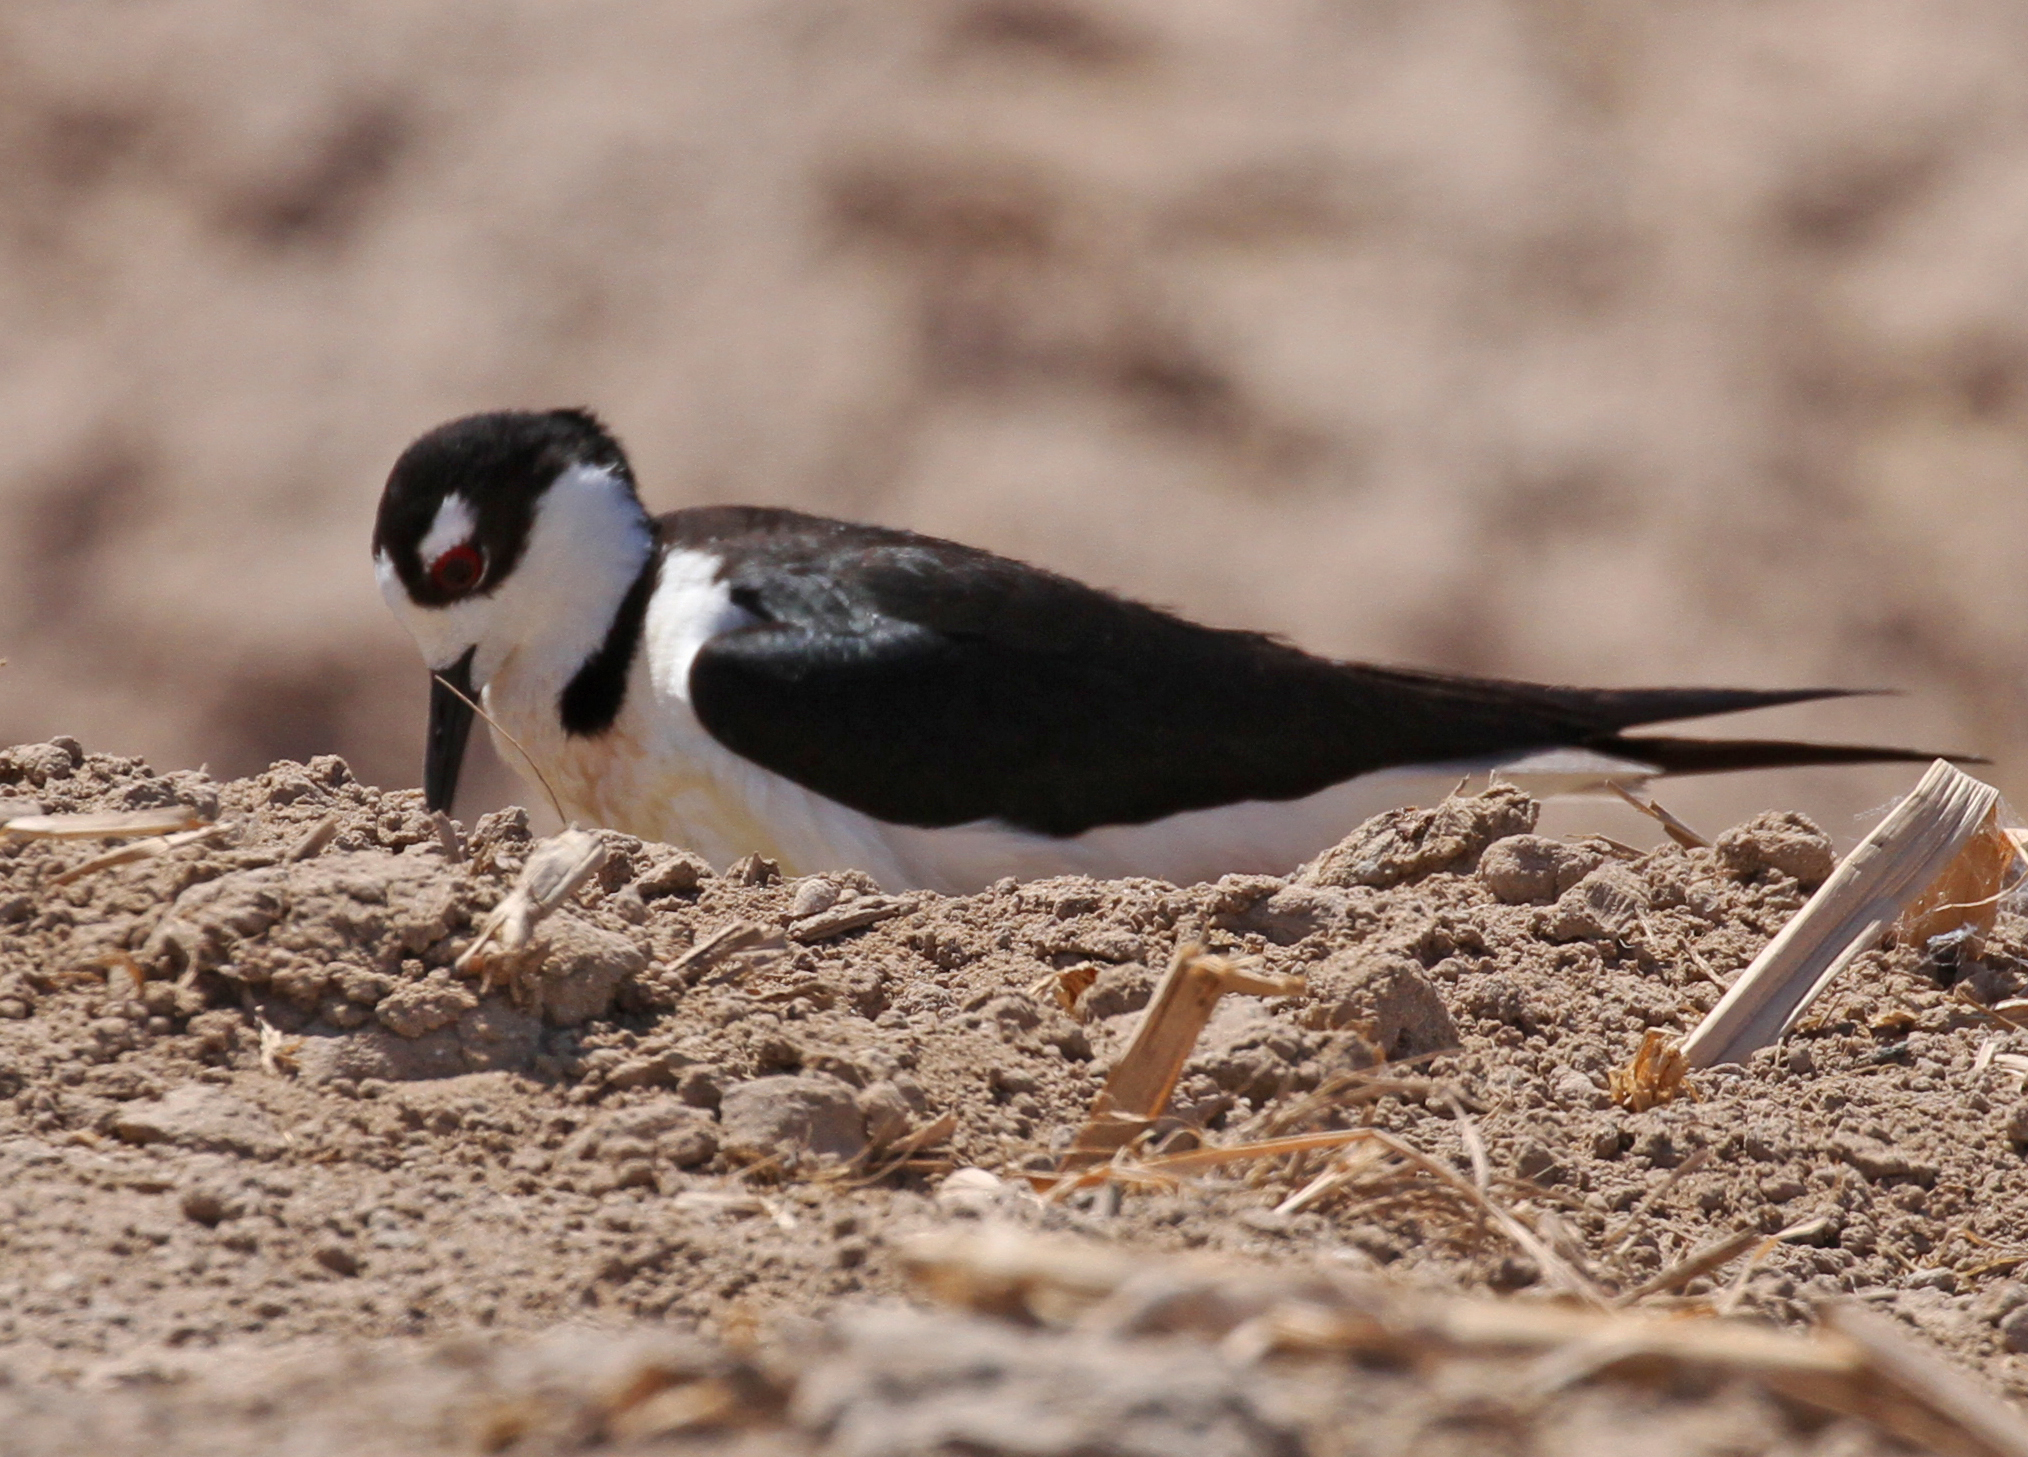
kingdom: Animalia
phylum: Chordata
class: Aves
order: Charadriiformes
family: Recurvirostridae
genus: Himantopus
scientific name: Himantopus mexicanus
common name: Black-necked stilt
